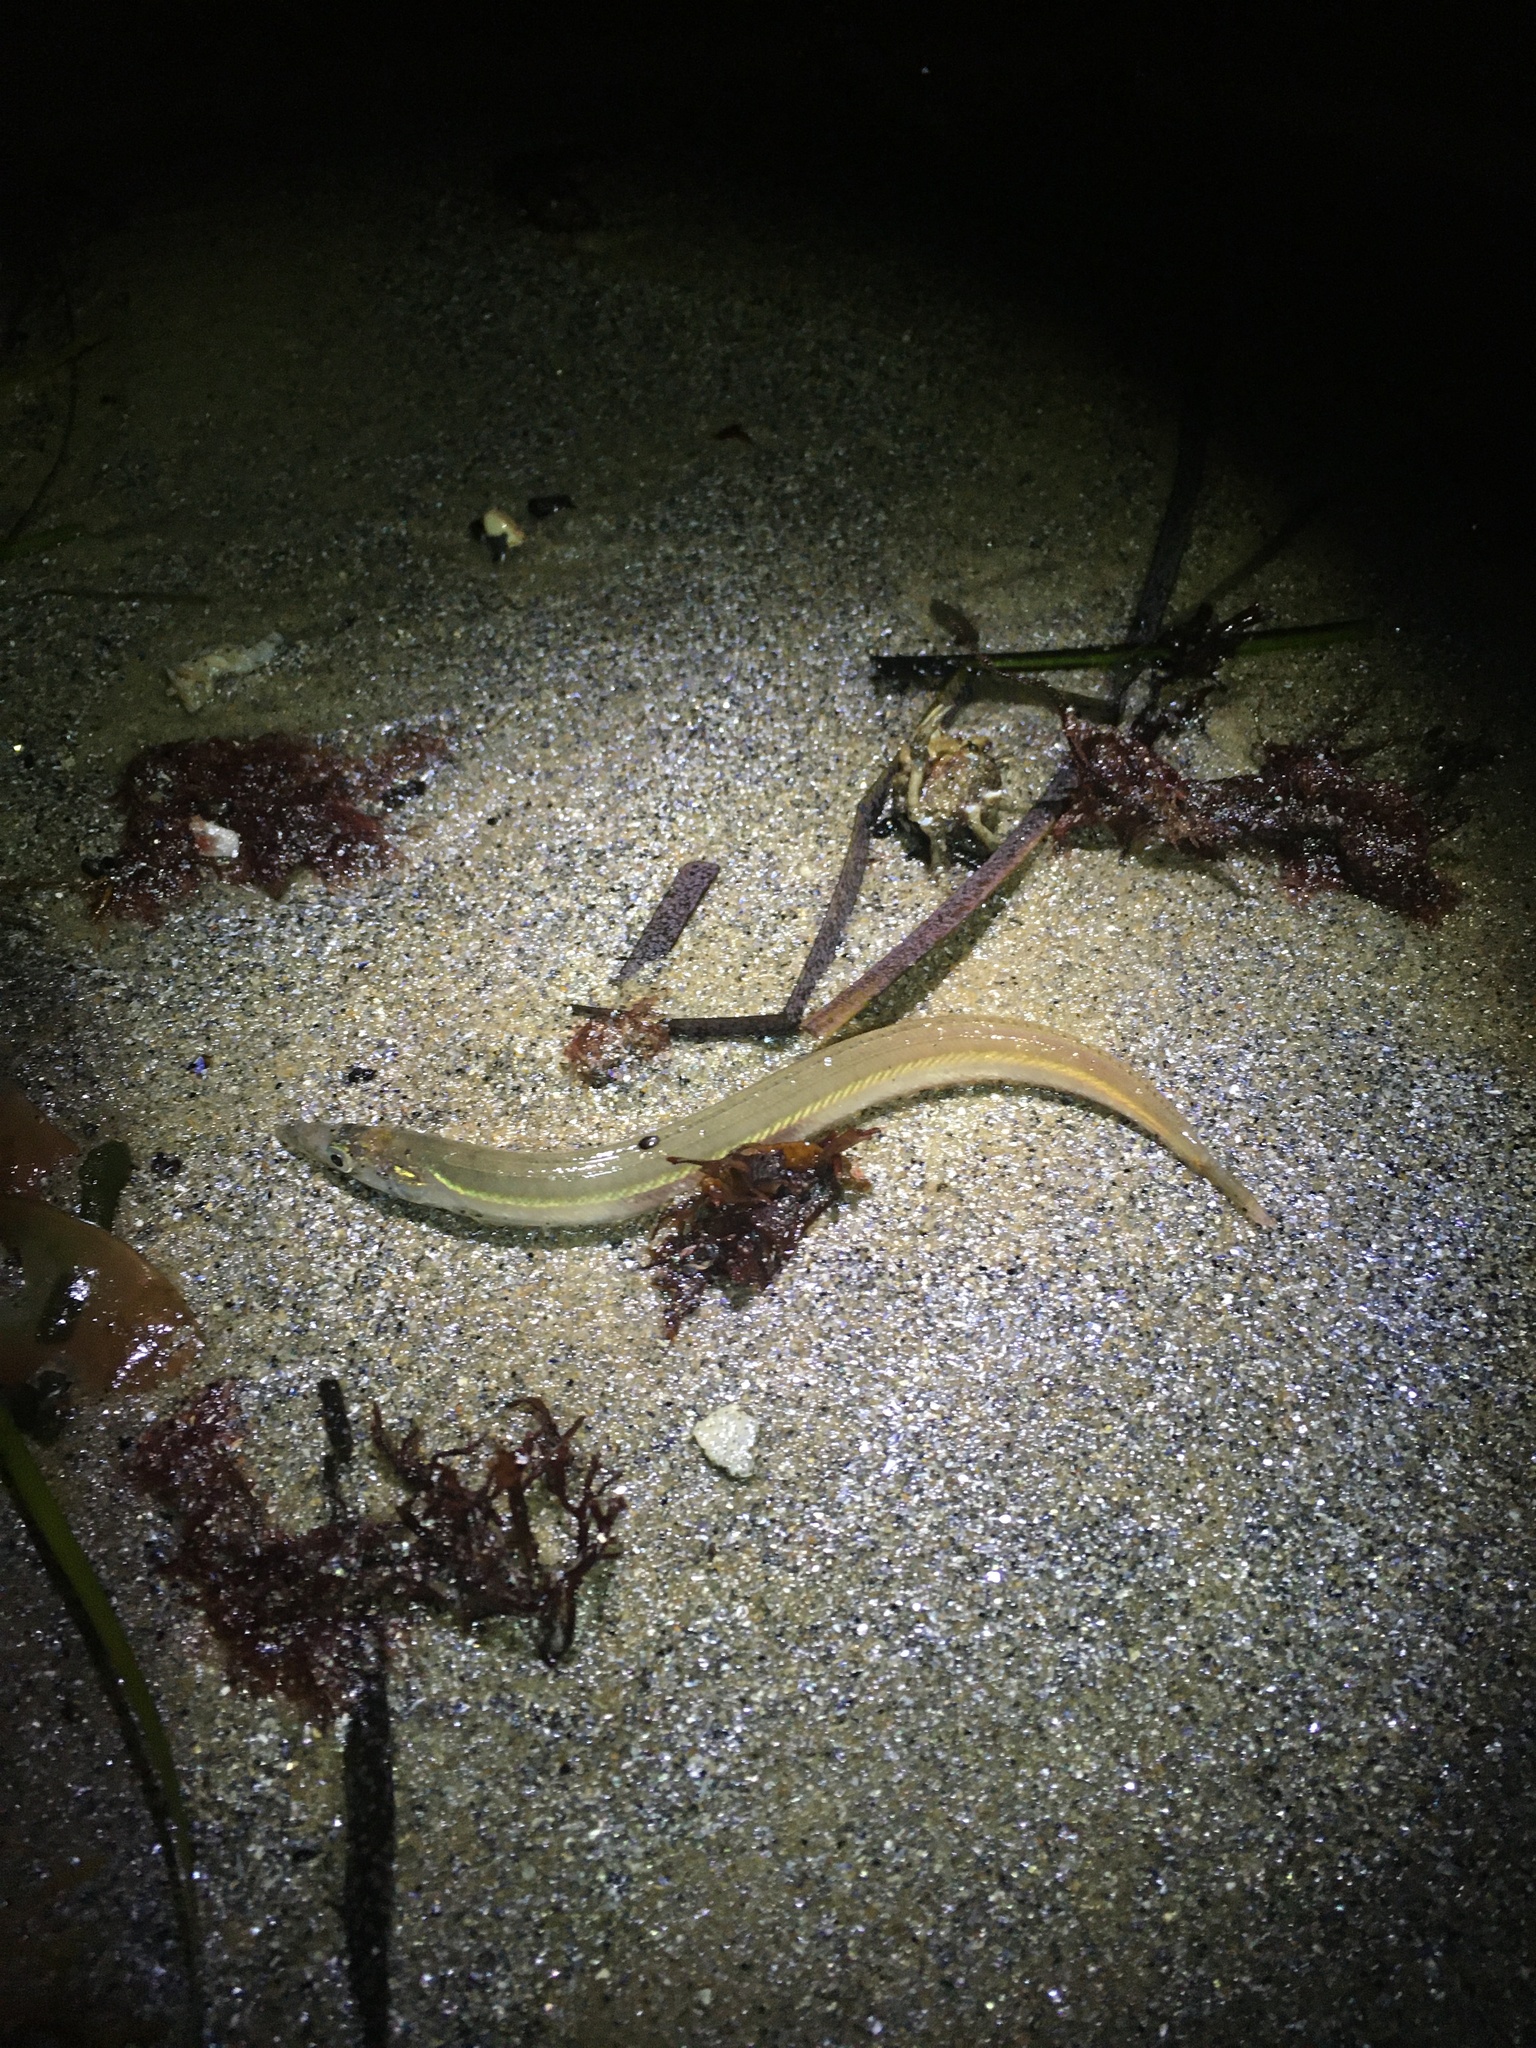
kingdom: Animalia
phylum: Chordata
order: Perciformes
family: Ammodytidae
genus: Ammodytes
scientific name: Ammodytes
